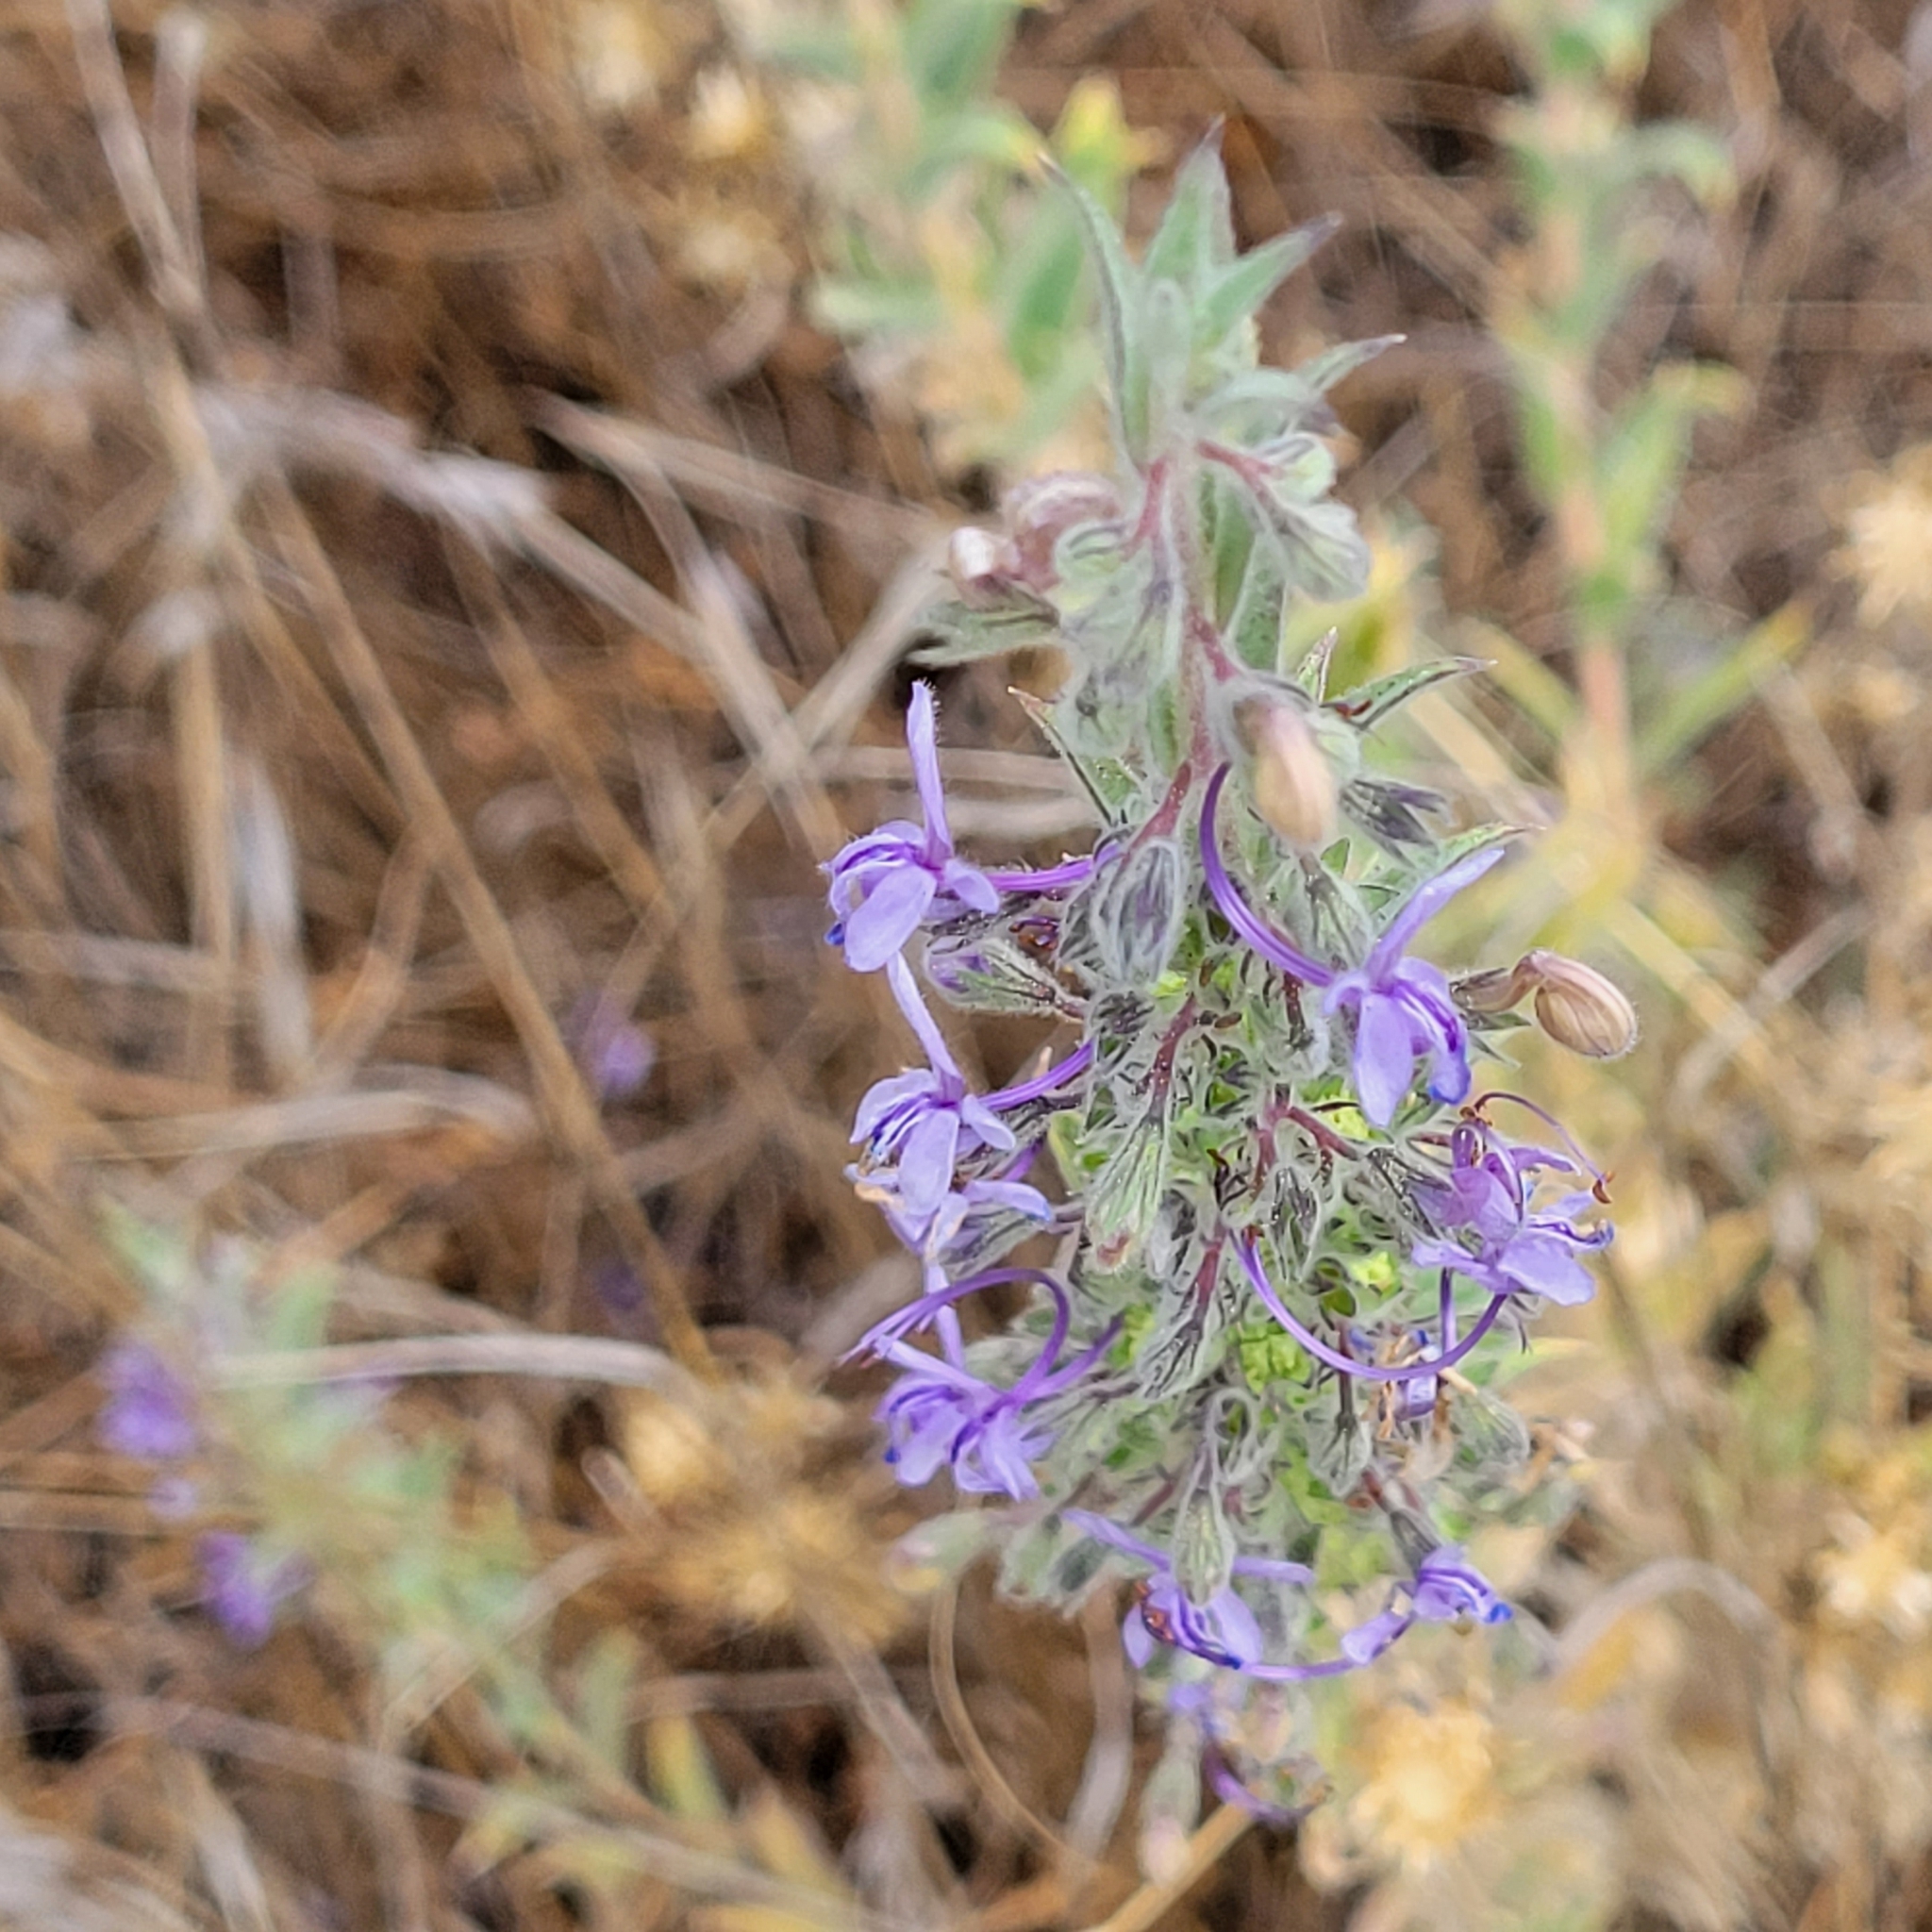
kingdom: Plantae
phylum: Tracheophyta
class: Magnoliopsida
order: Lamiales
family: Lamiaceae
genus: Trichostema
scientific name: Trichostema lanceolatum
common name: Vinegar-weed
